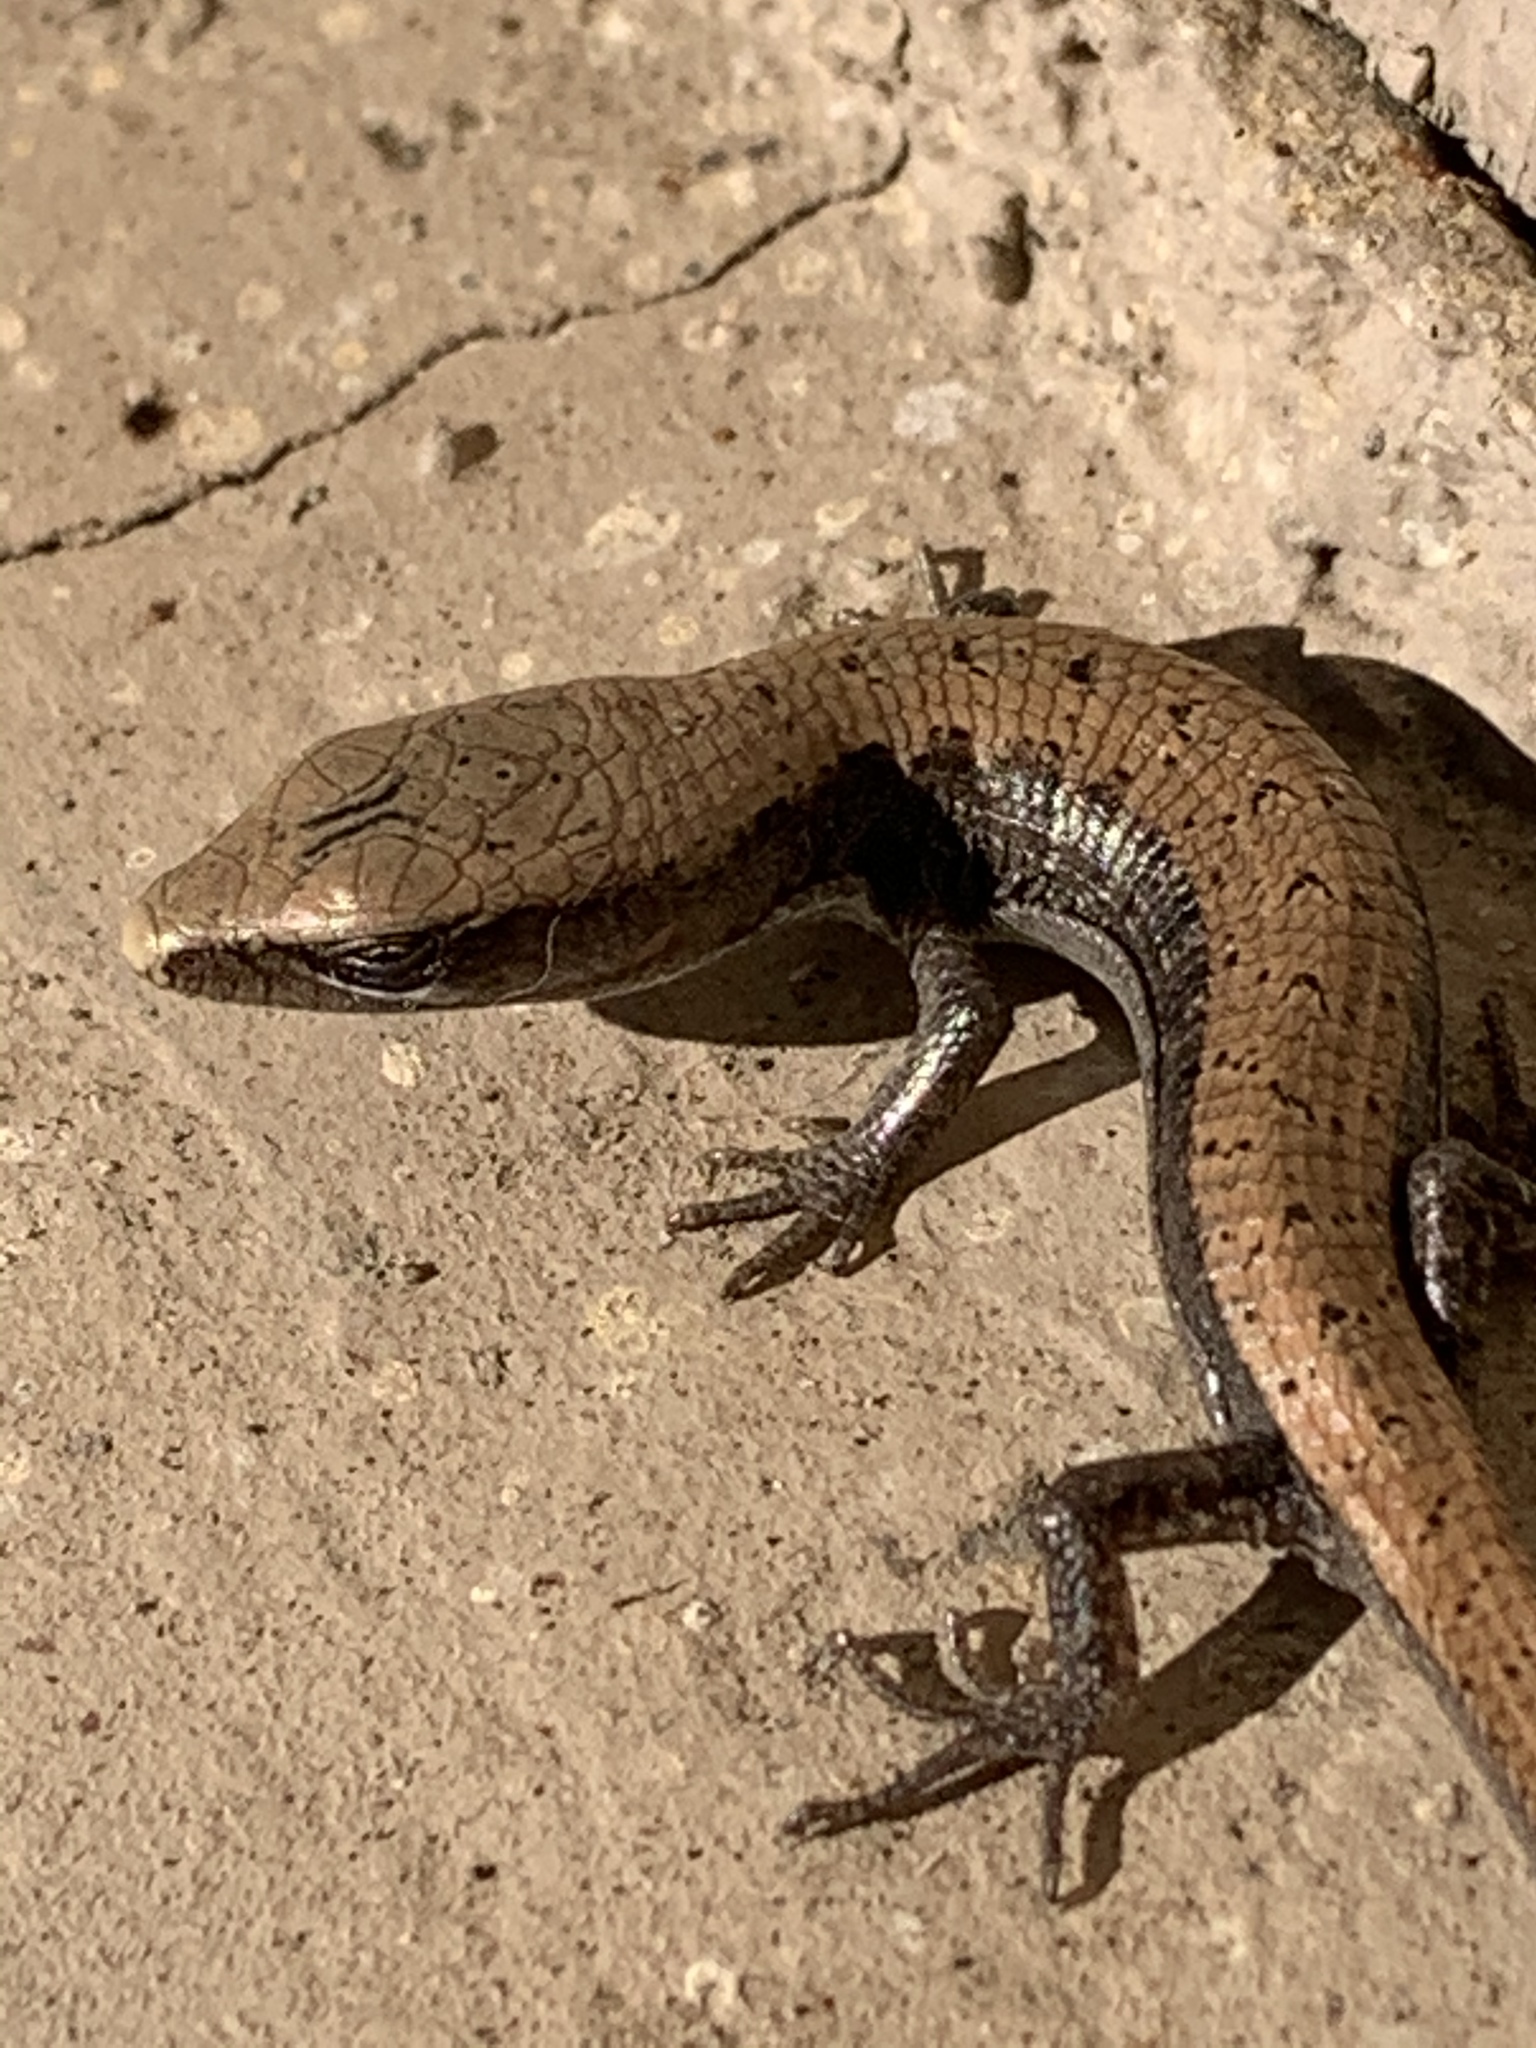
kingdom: Animalia
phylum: Chordata
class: Squamata
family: Anguidae
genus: Elgaria
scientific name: Elgaria multicarinata
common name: Southern alligator lizard
